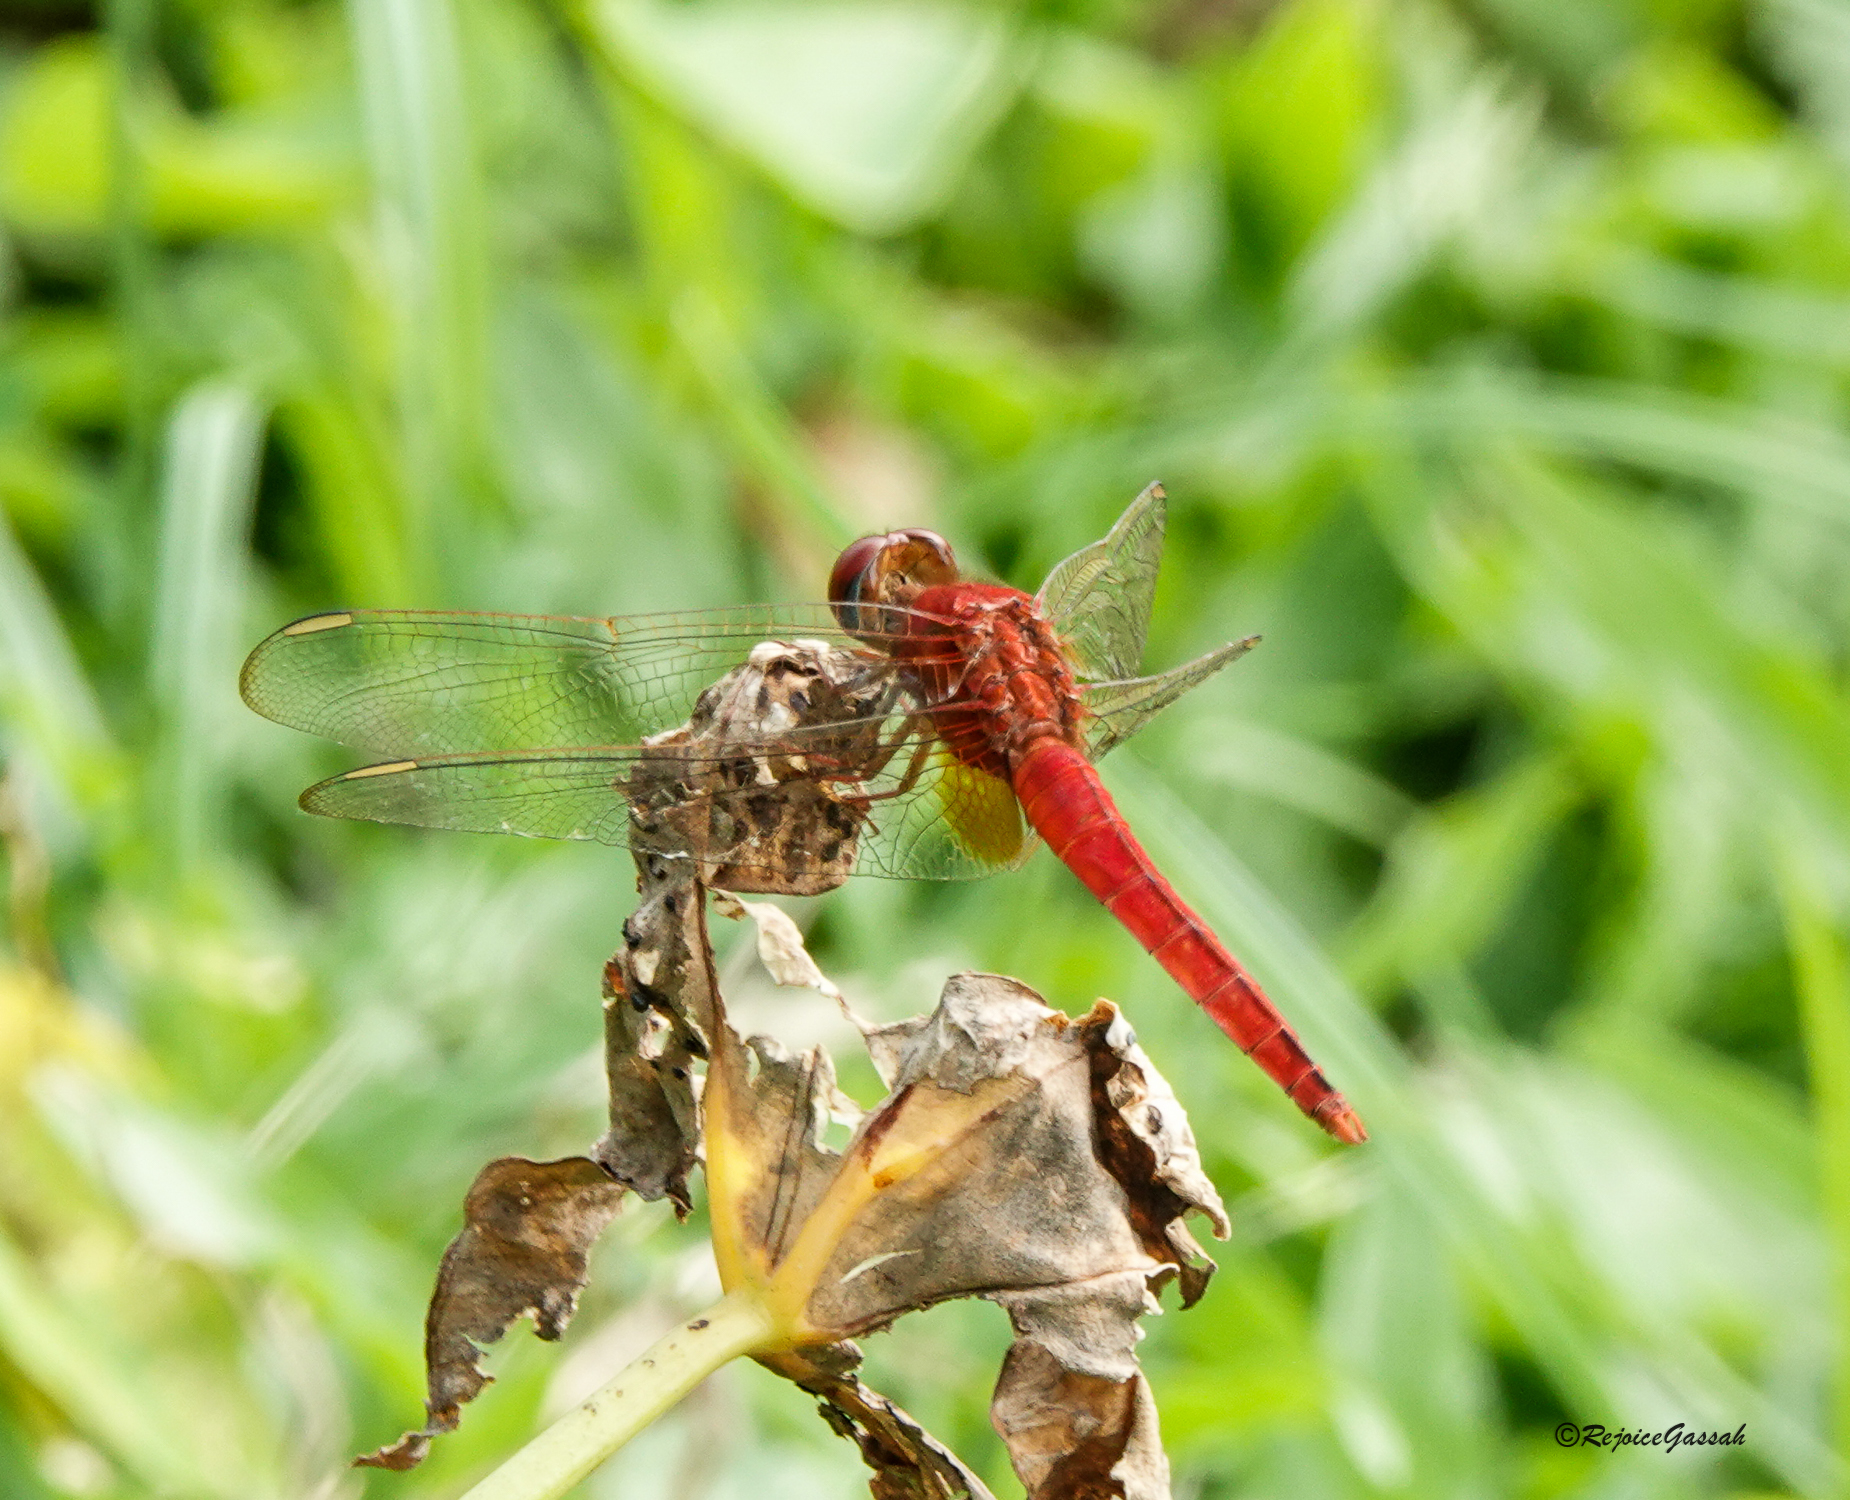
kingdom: Animalia
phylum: Arthropoda
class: Insecta
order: Odonata
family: Libellulidae
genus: Crocothemis
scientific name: Crocothemis servilia
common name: Scarlet skimmer
